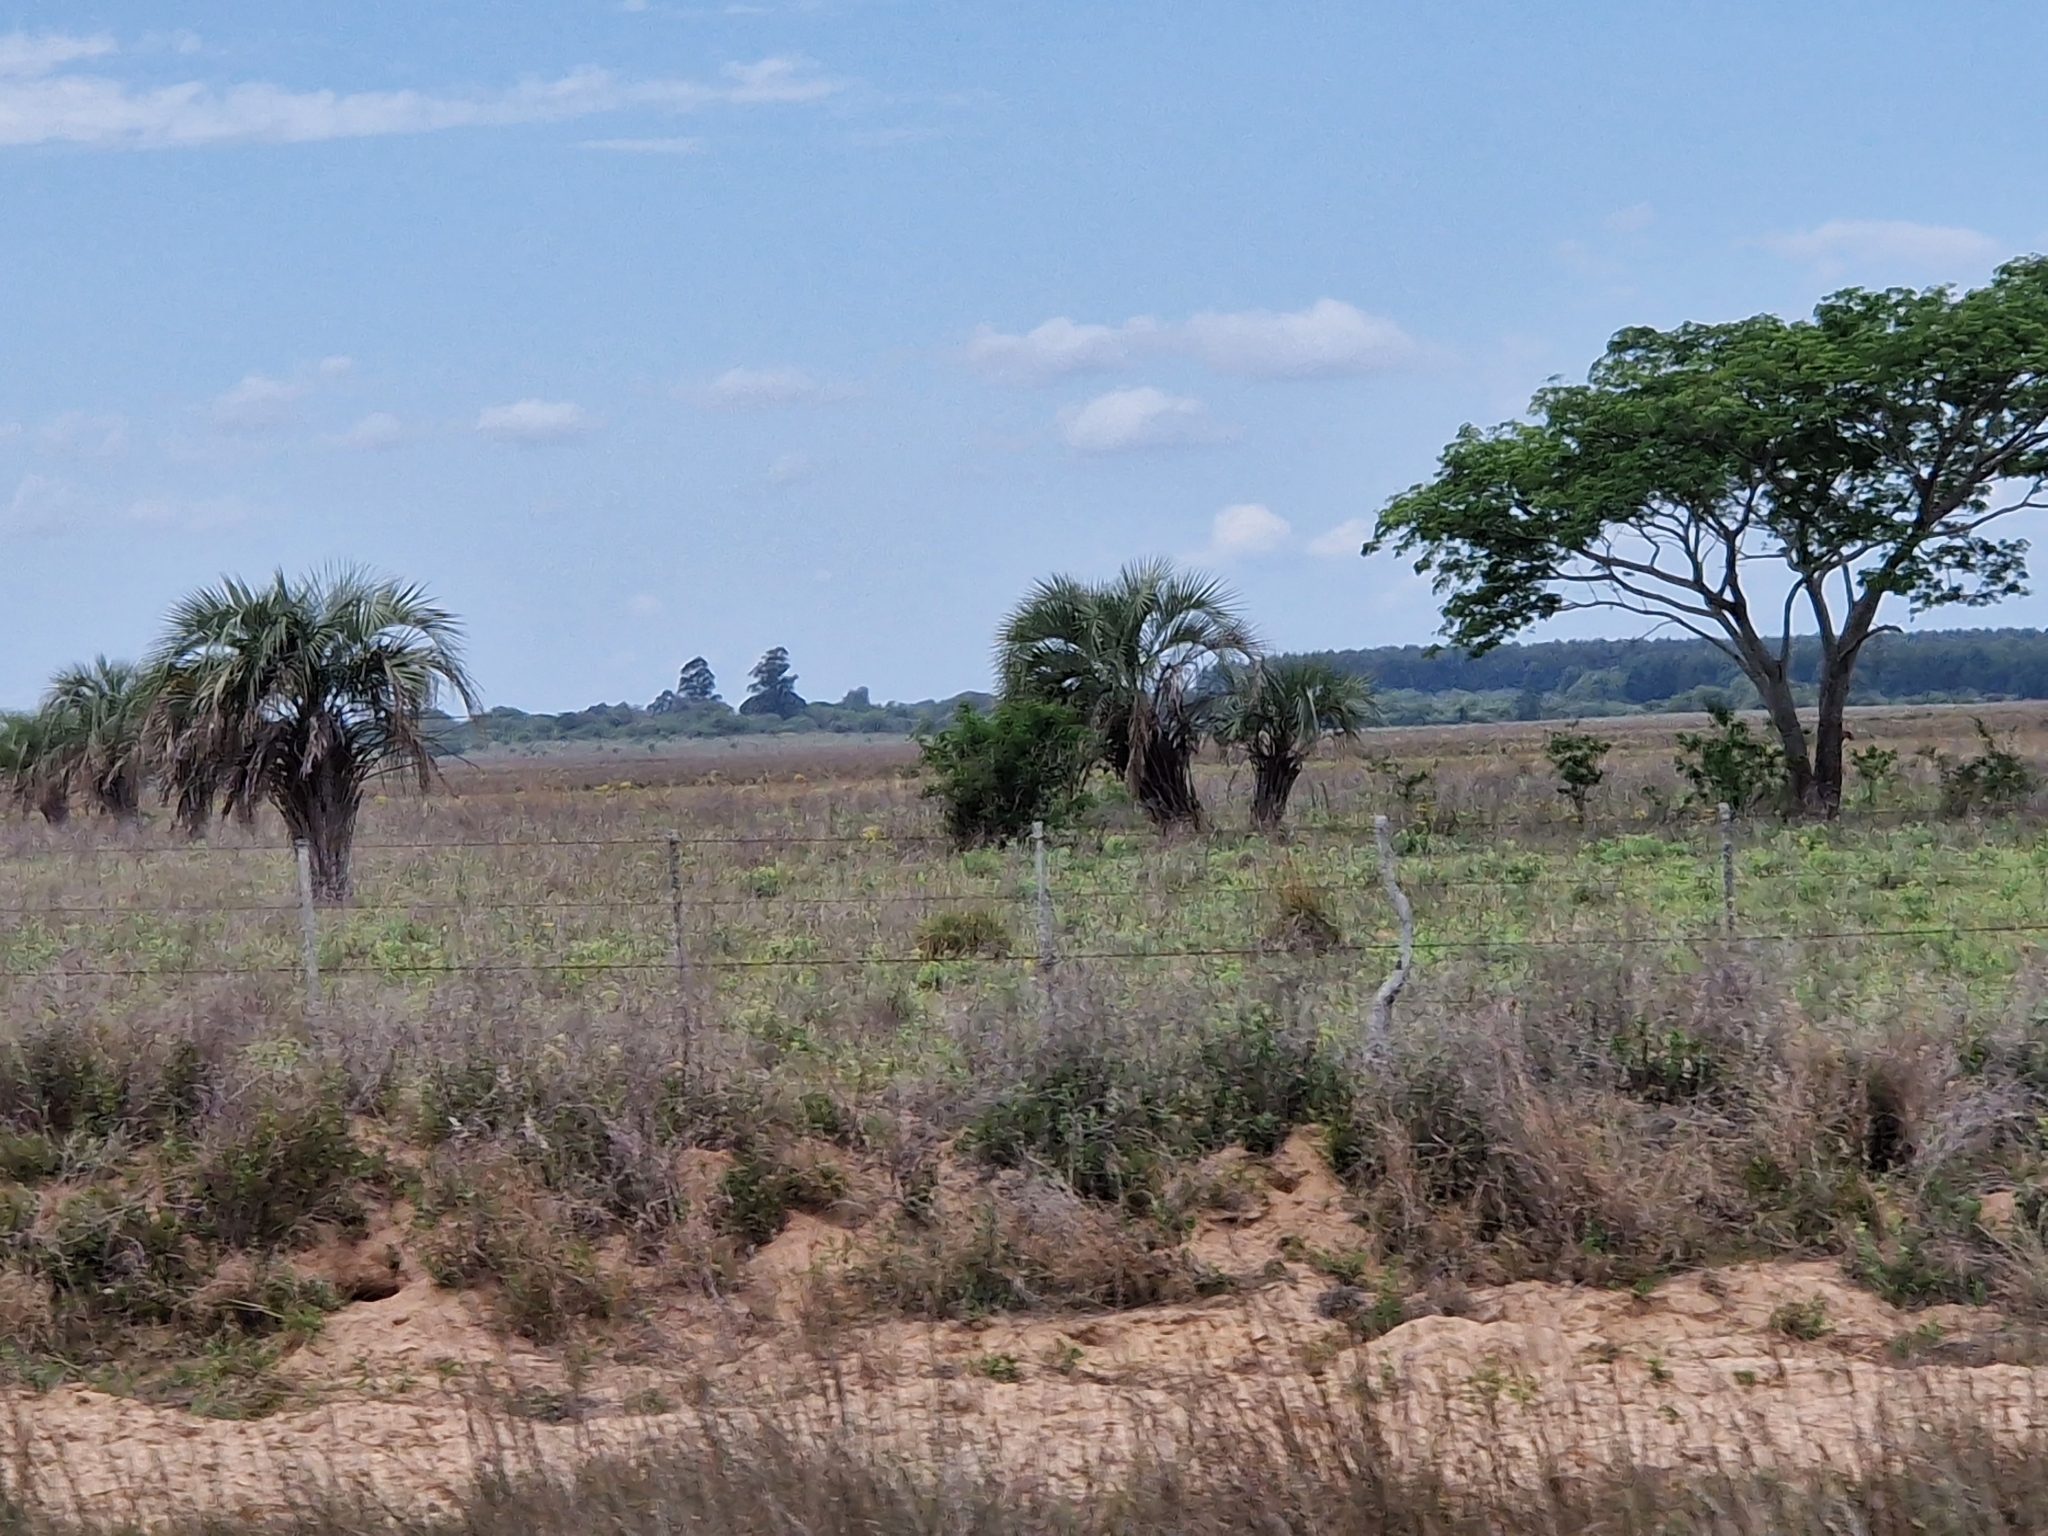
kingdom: Plantae
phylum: Tracheophyta
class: Liliopsida
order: Arecales
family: Arecaceae
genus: Butia
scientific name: Butia yatay
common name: Yatay palm
